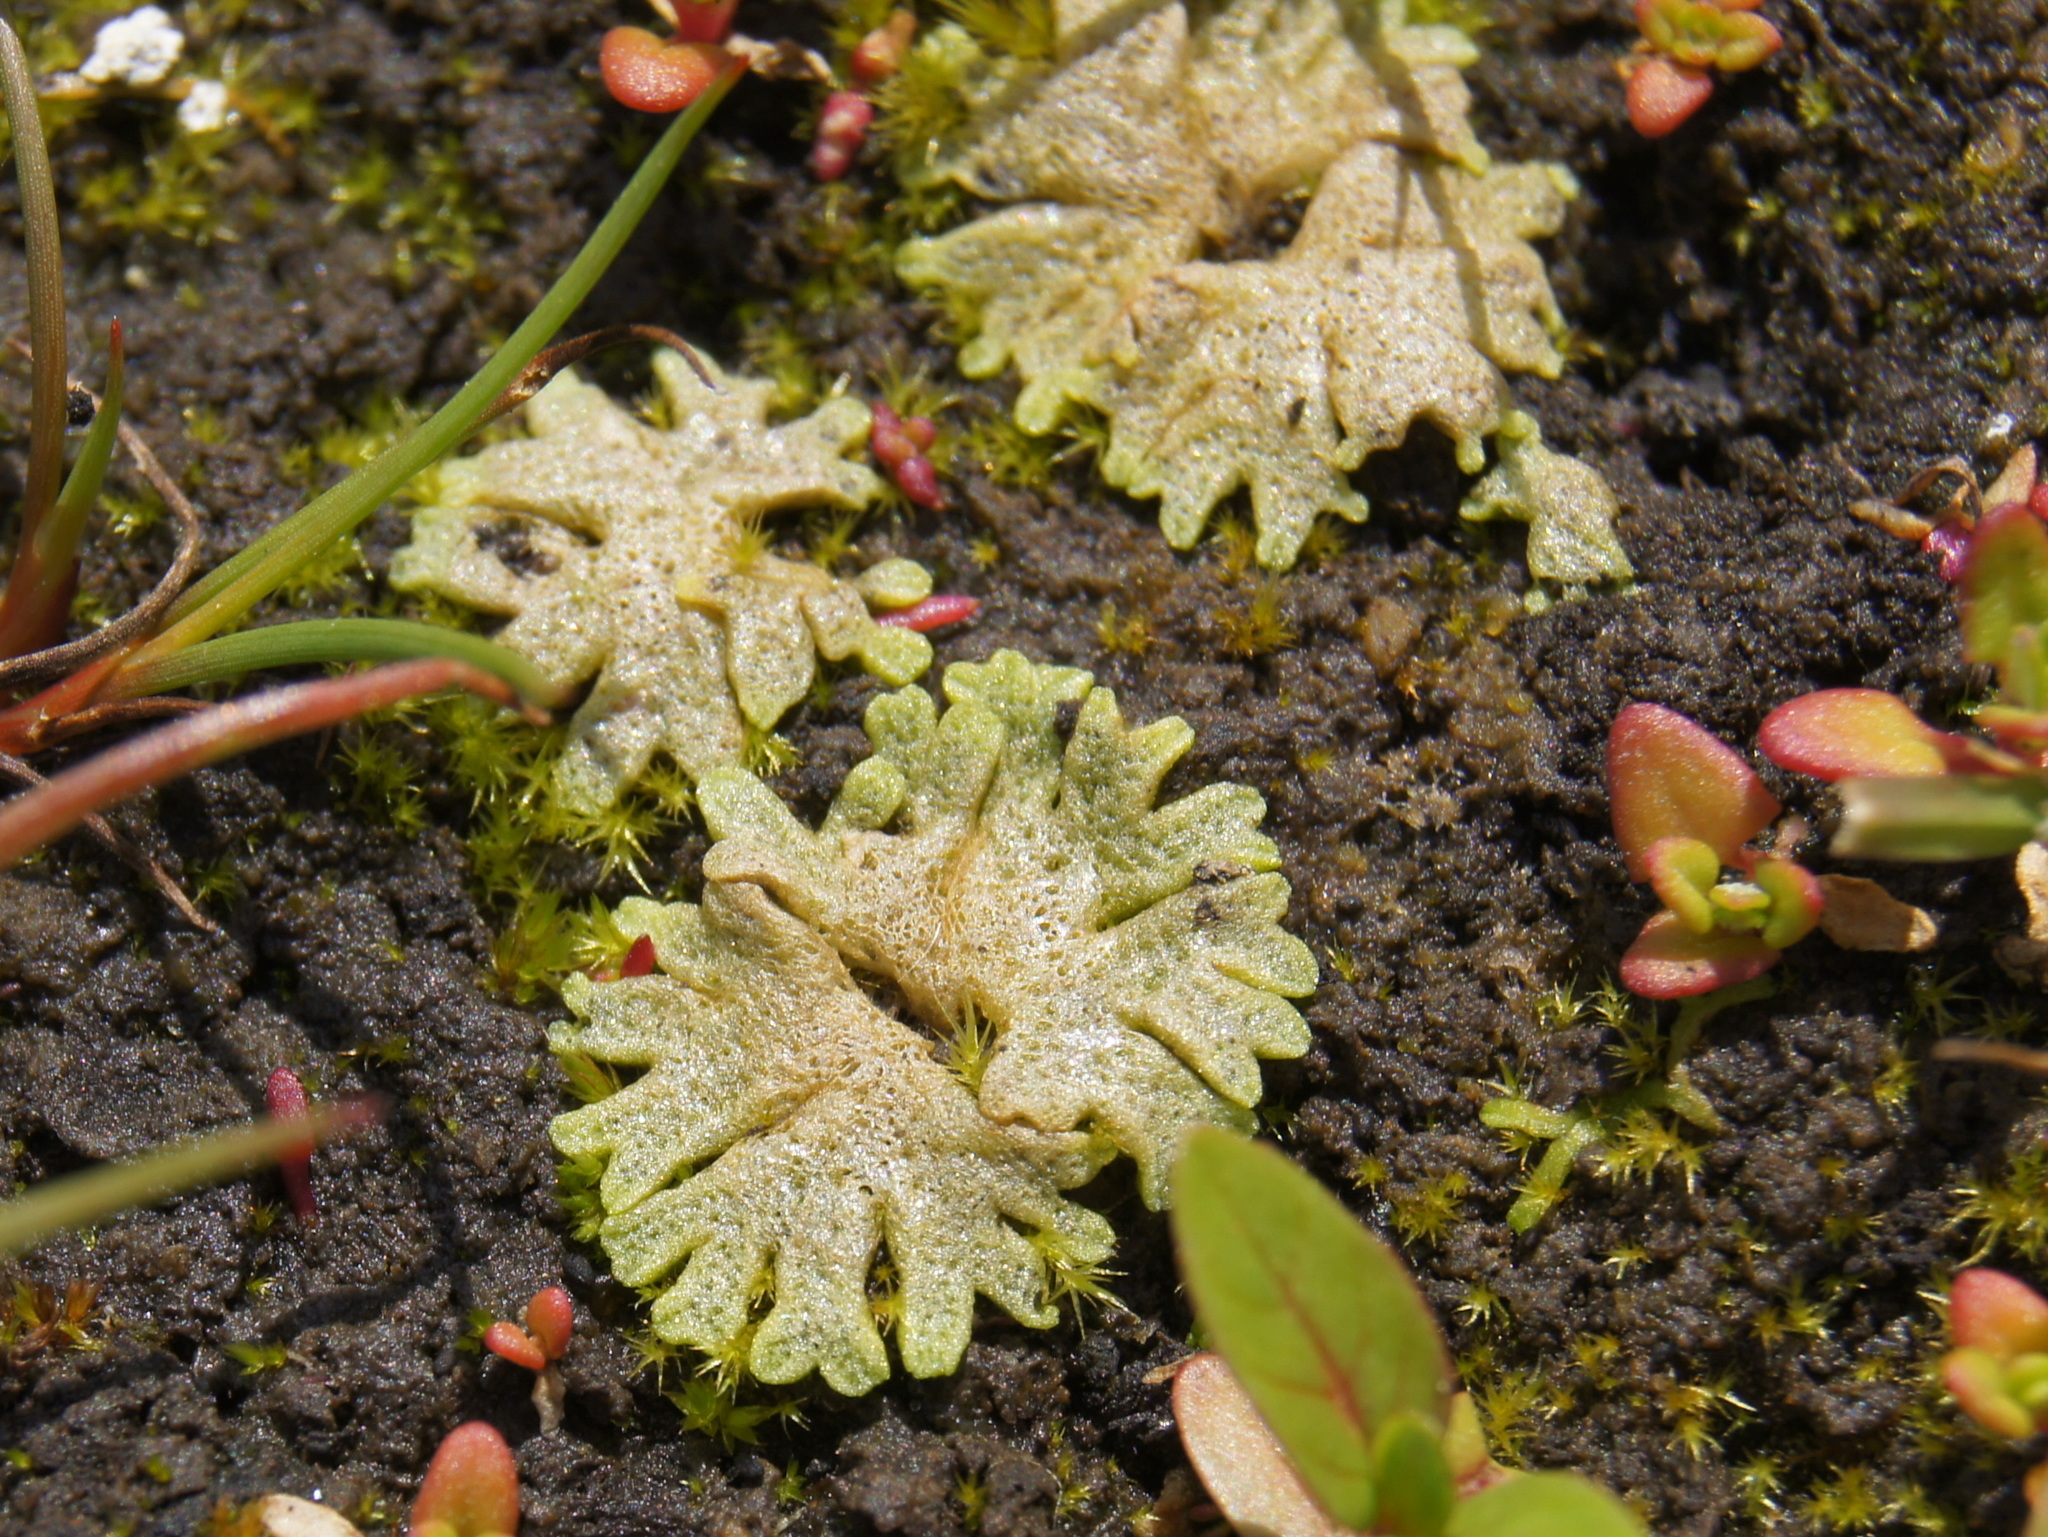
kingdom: Plantae
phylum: Marchantiophyta
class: Marchantiopsida
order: Marchantiales
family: Ricciaceae
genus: Riccia
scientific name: Riccia cavernosa
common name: Cavernous crystalwort
